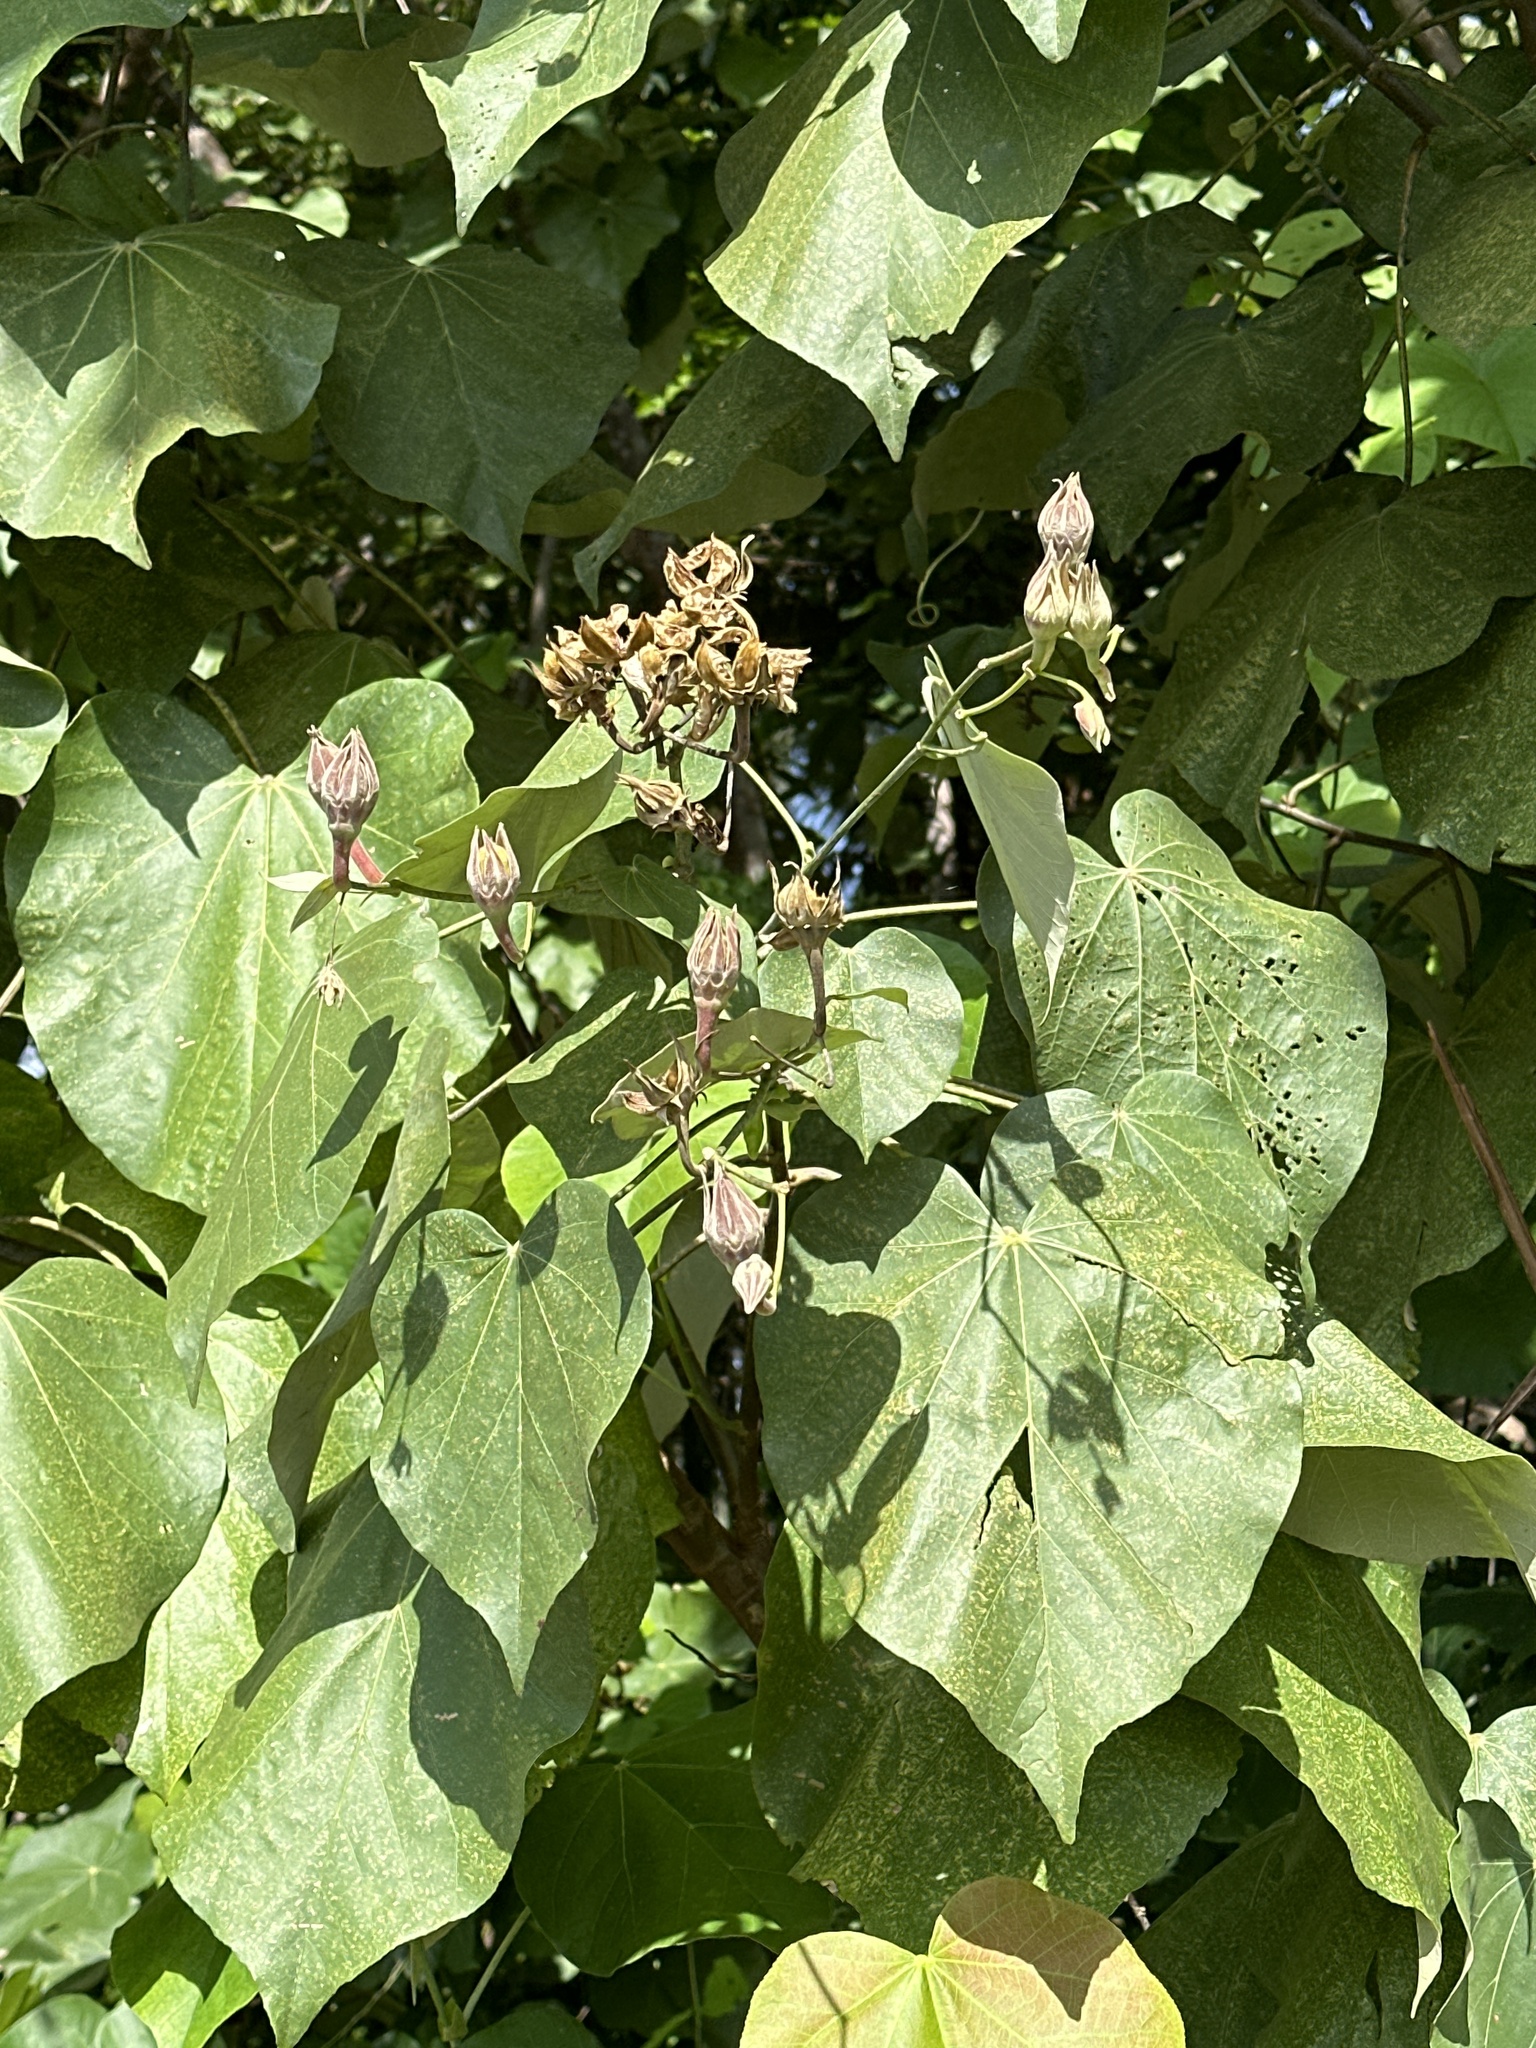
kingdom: Plantae
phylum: Tracheophyta
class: Magnoliopsida
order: Malvales
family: Malvaceae
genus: Talipariti
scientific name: Talipariti tiliaceum
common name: Sea hibiscus
